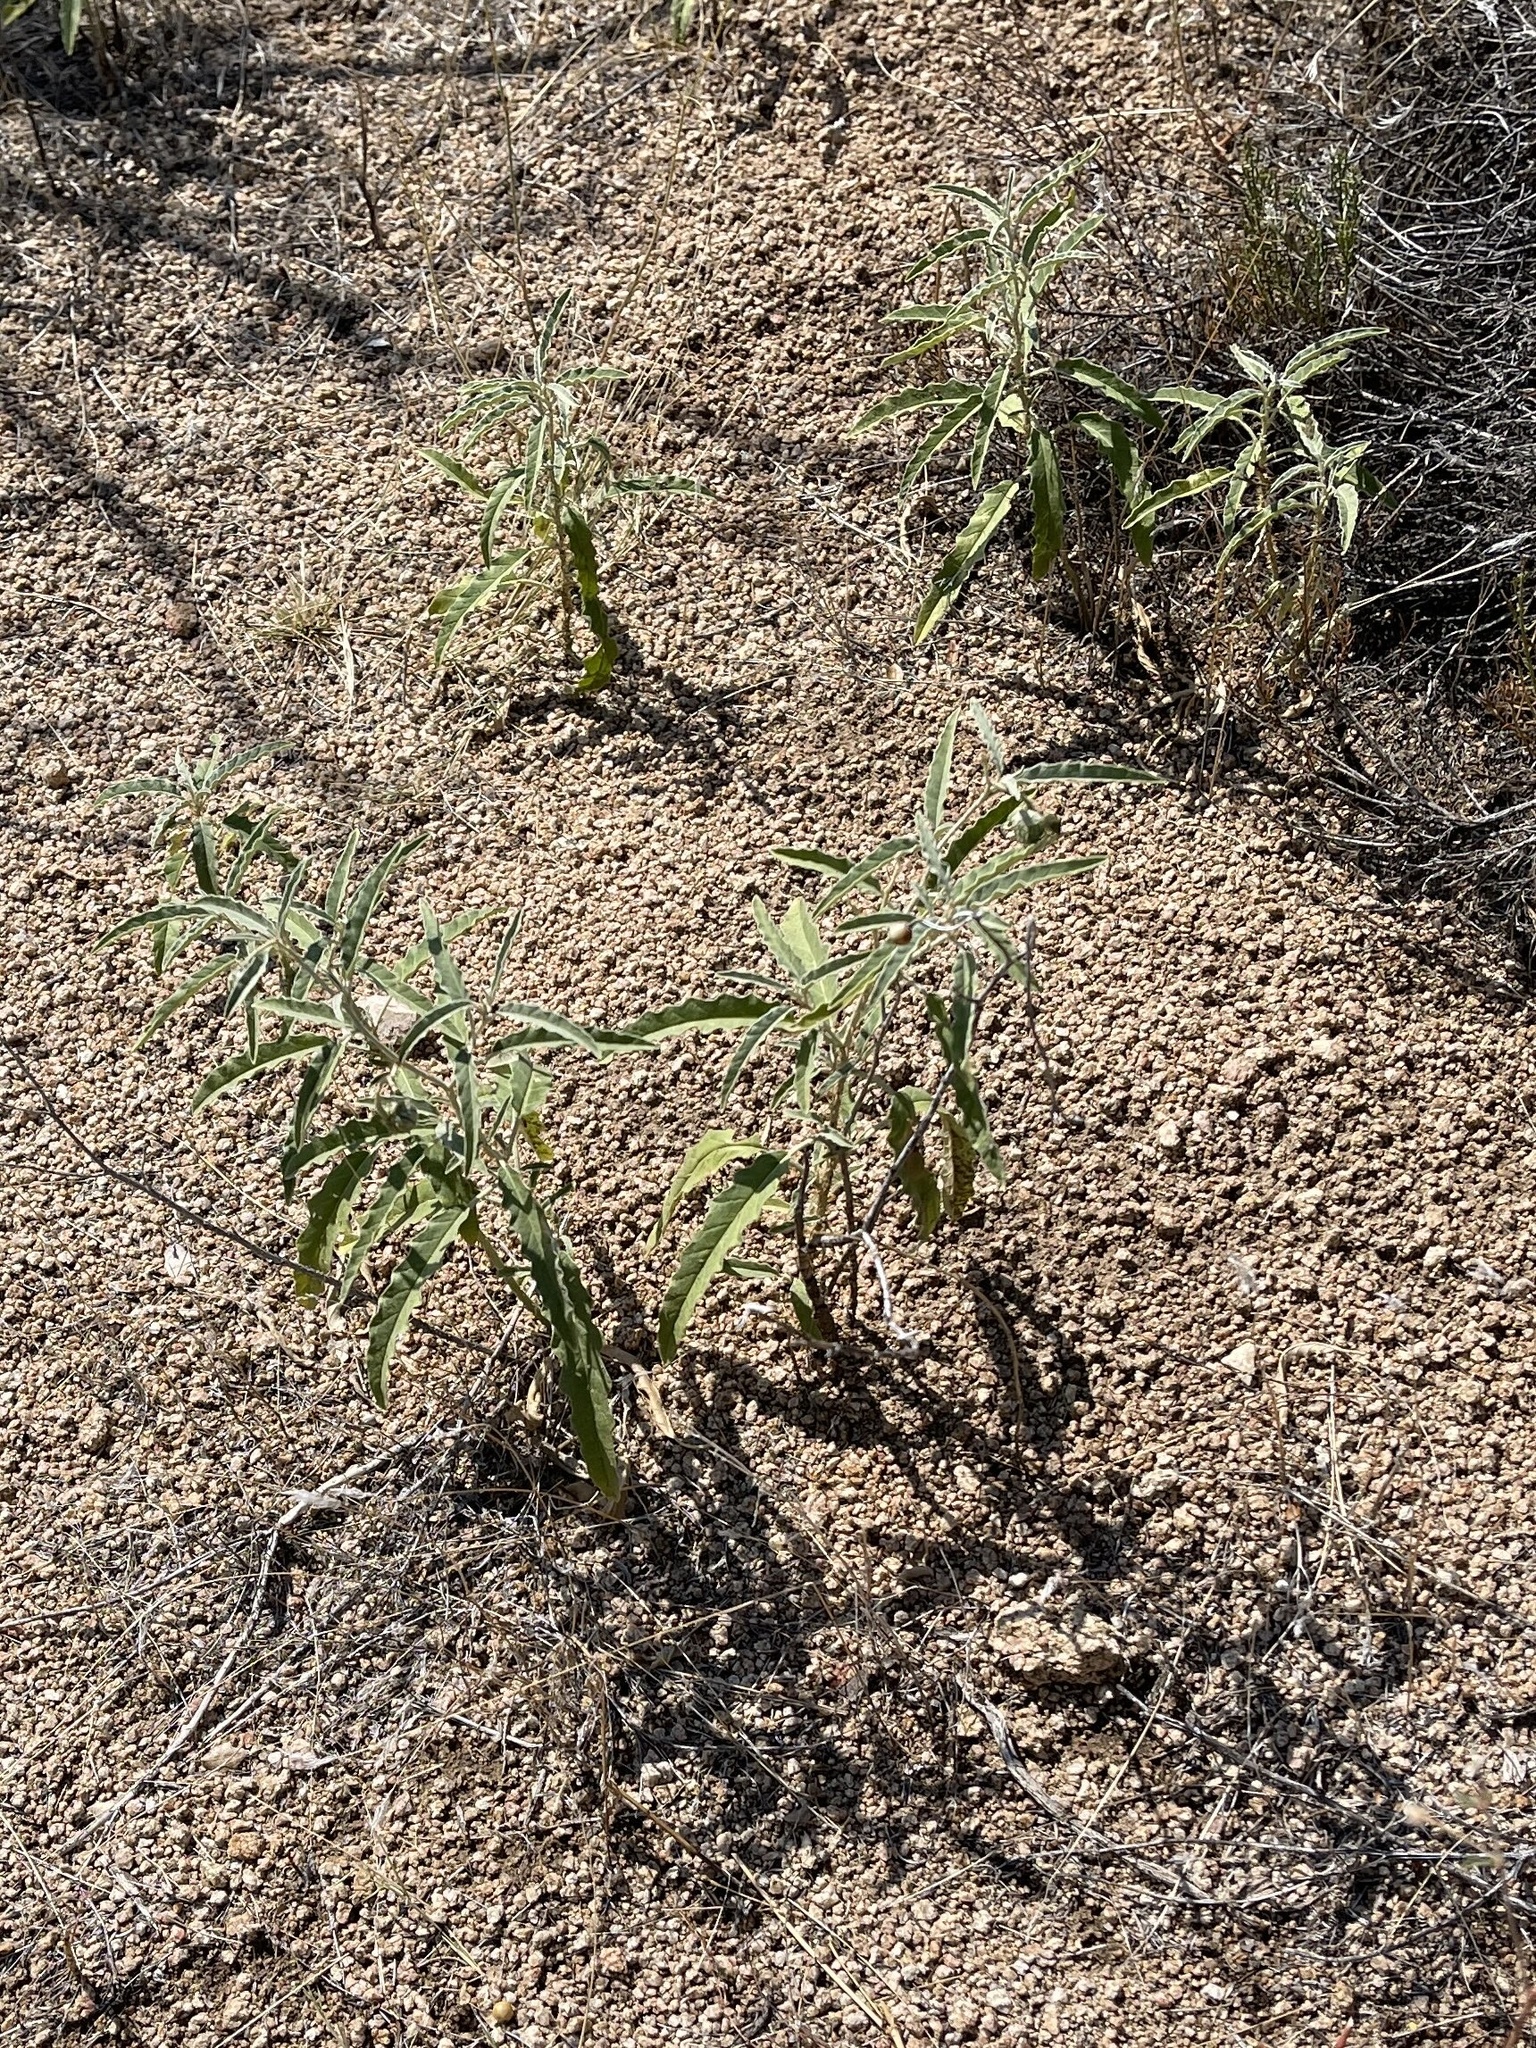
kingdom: Plantae
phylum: Tracheophyta
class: Magnoliopsida
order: Solanales
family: Solanaceae
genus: Solanum
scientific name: Solanum elaeagnifolium
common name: Silverleaf nightshade
